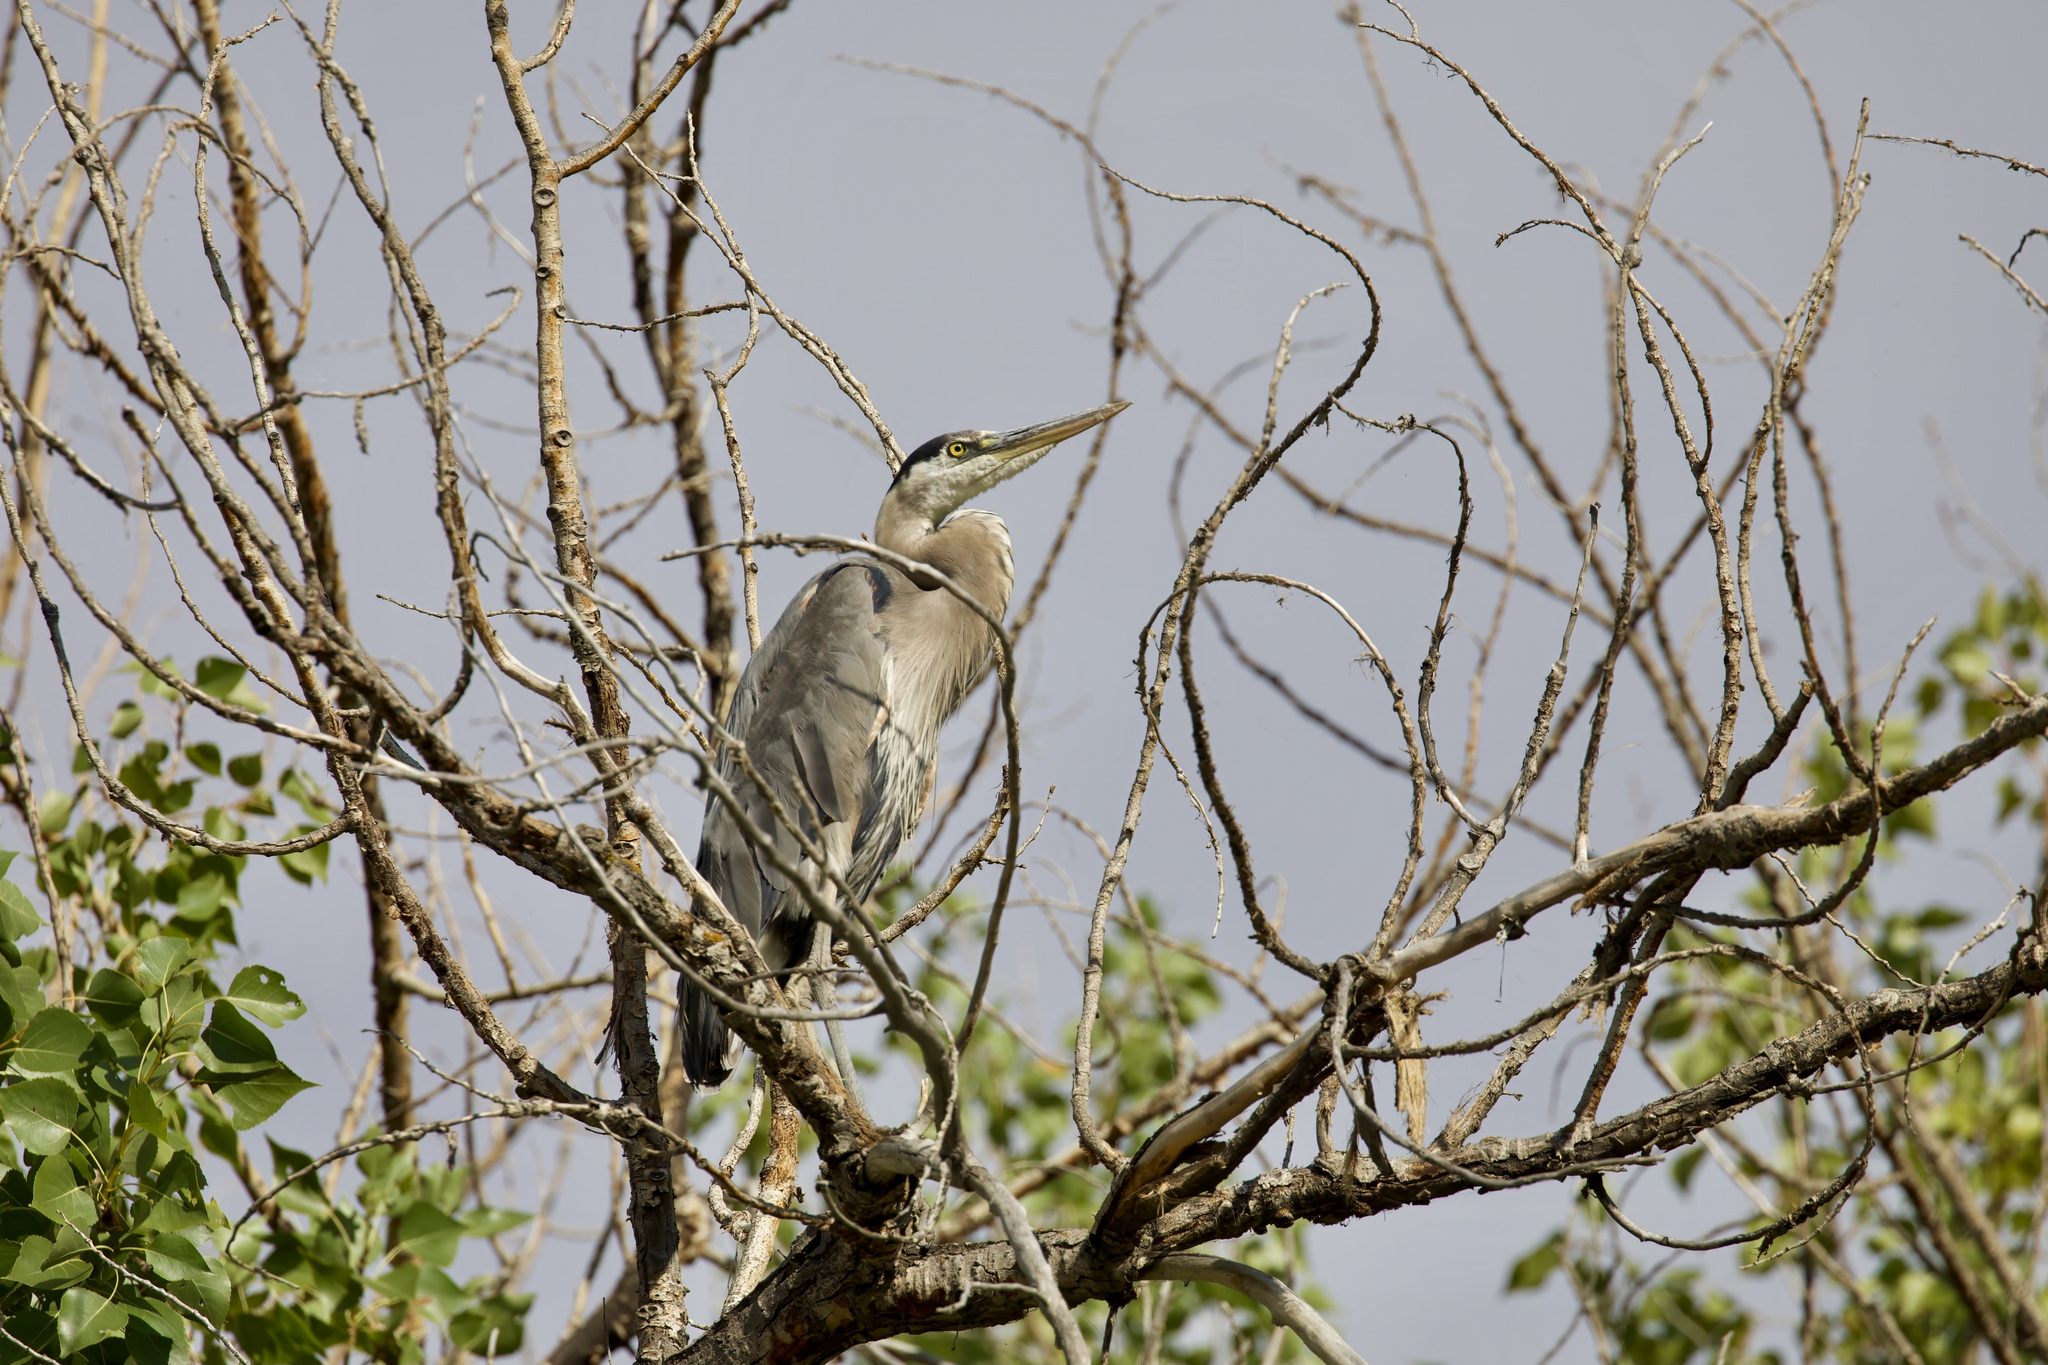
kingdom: Animalia
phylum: Chordata
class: Aves
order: Pelecaniformes
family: Ardeidae
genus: Ardea
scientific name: Ardea herodias
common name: Great blue heron
